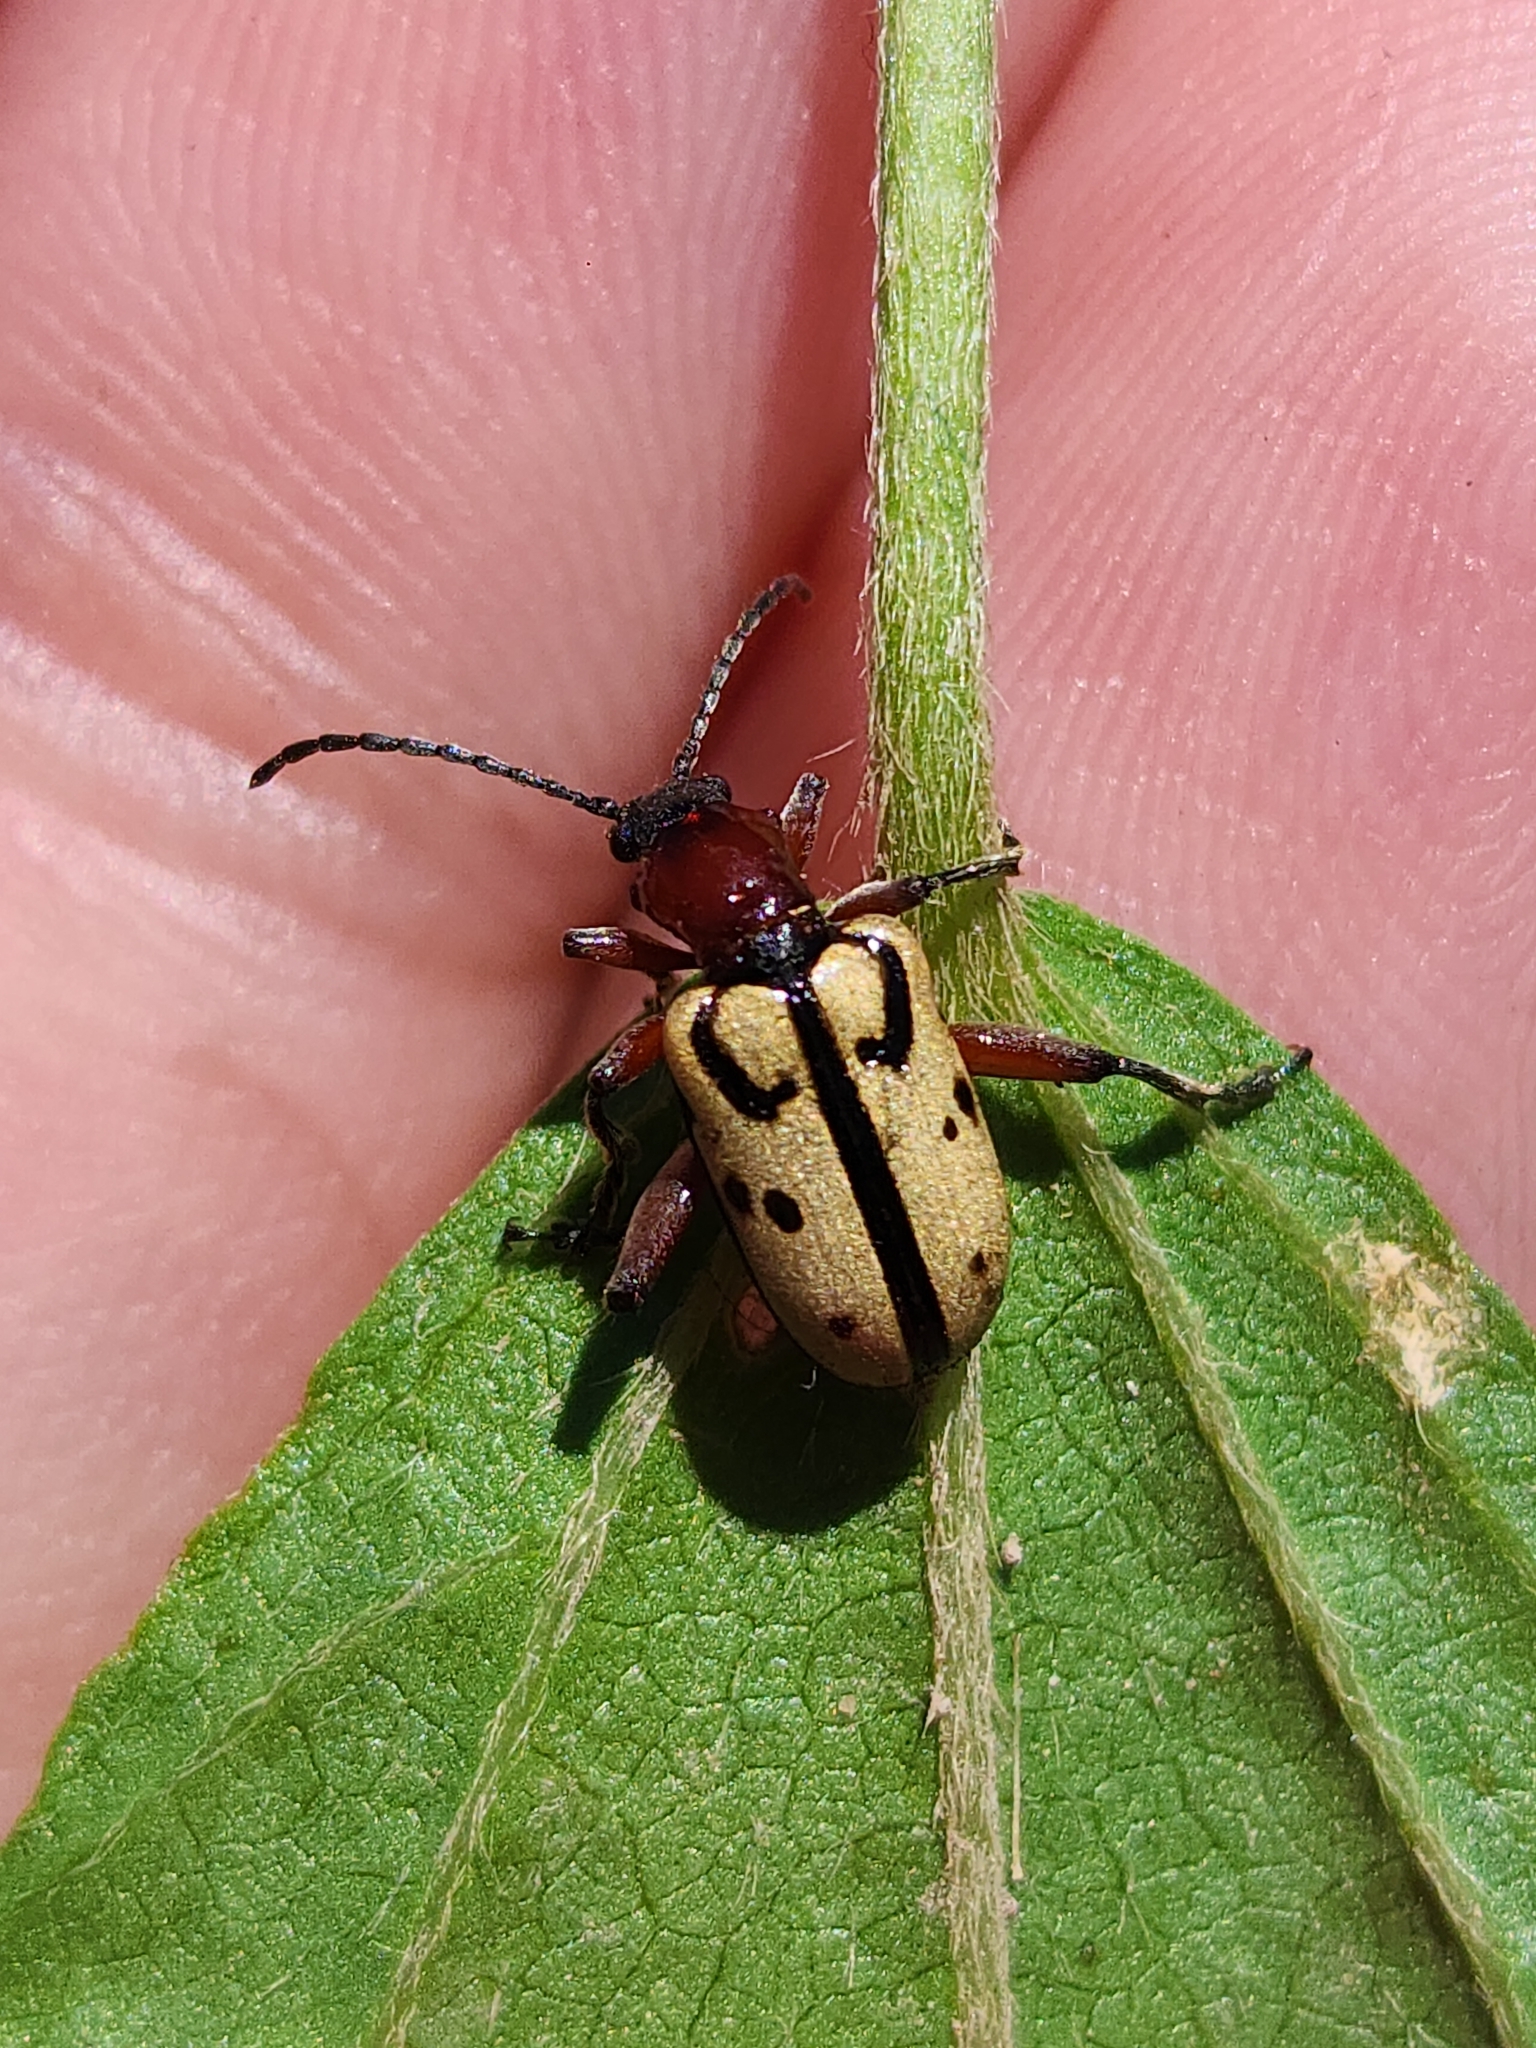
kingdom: Animalia
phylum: Arthropoda
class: Insecta
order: Coleoptera
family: Chrysomelidae
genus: Atalasis
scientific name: Atalasis
